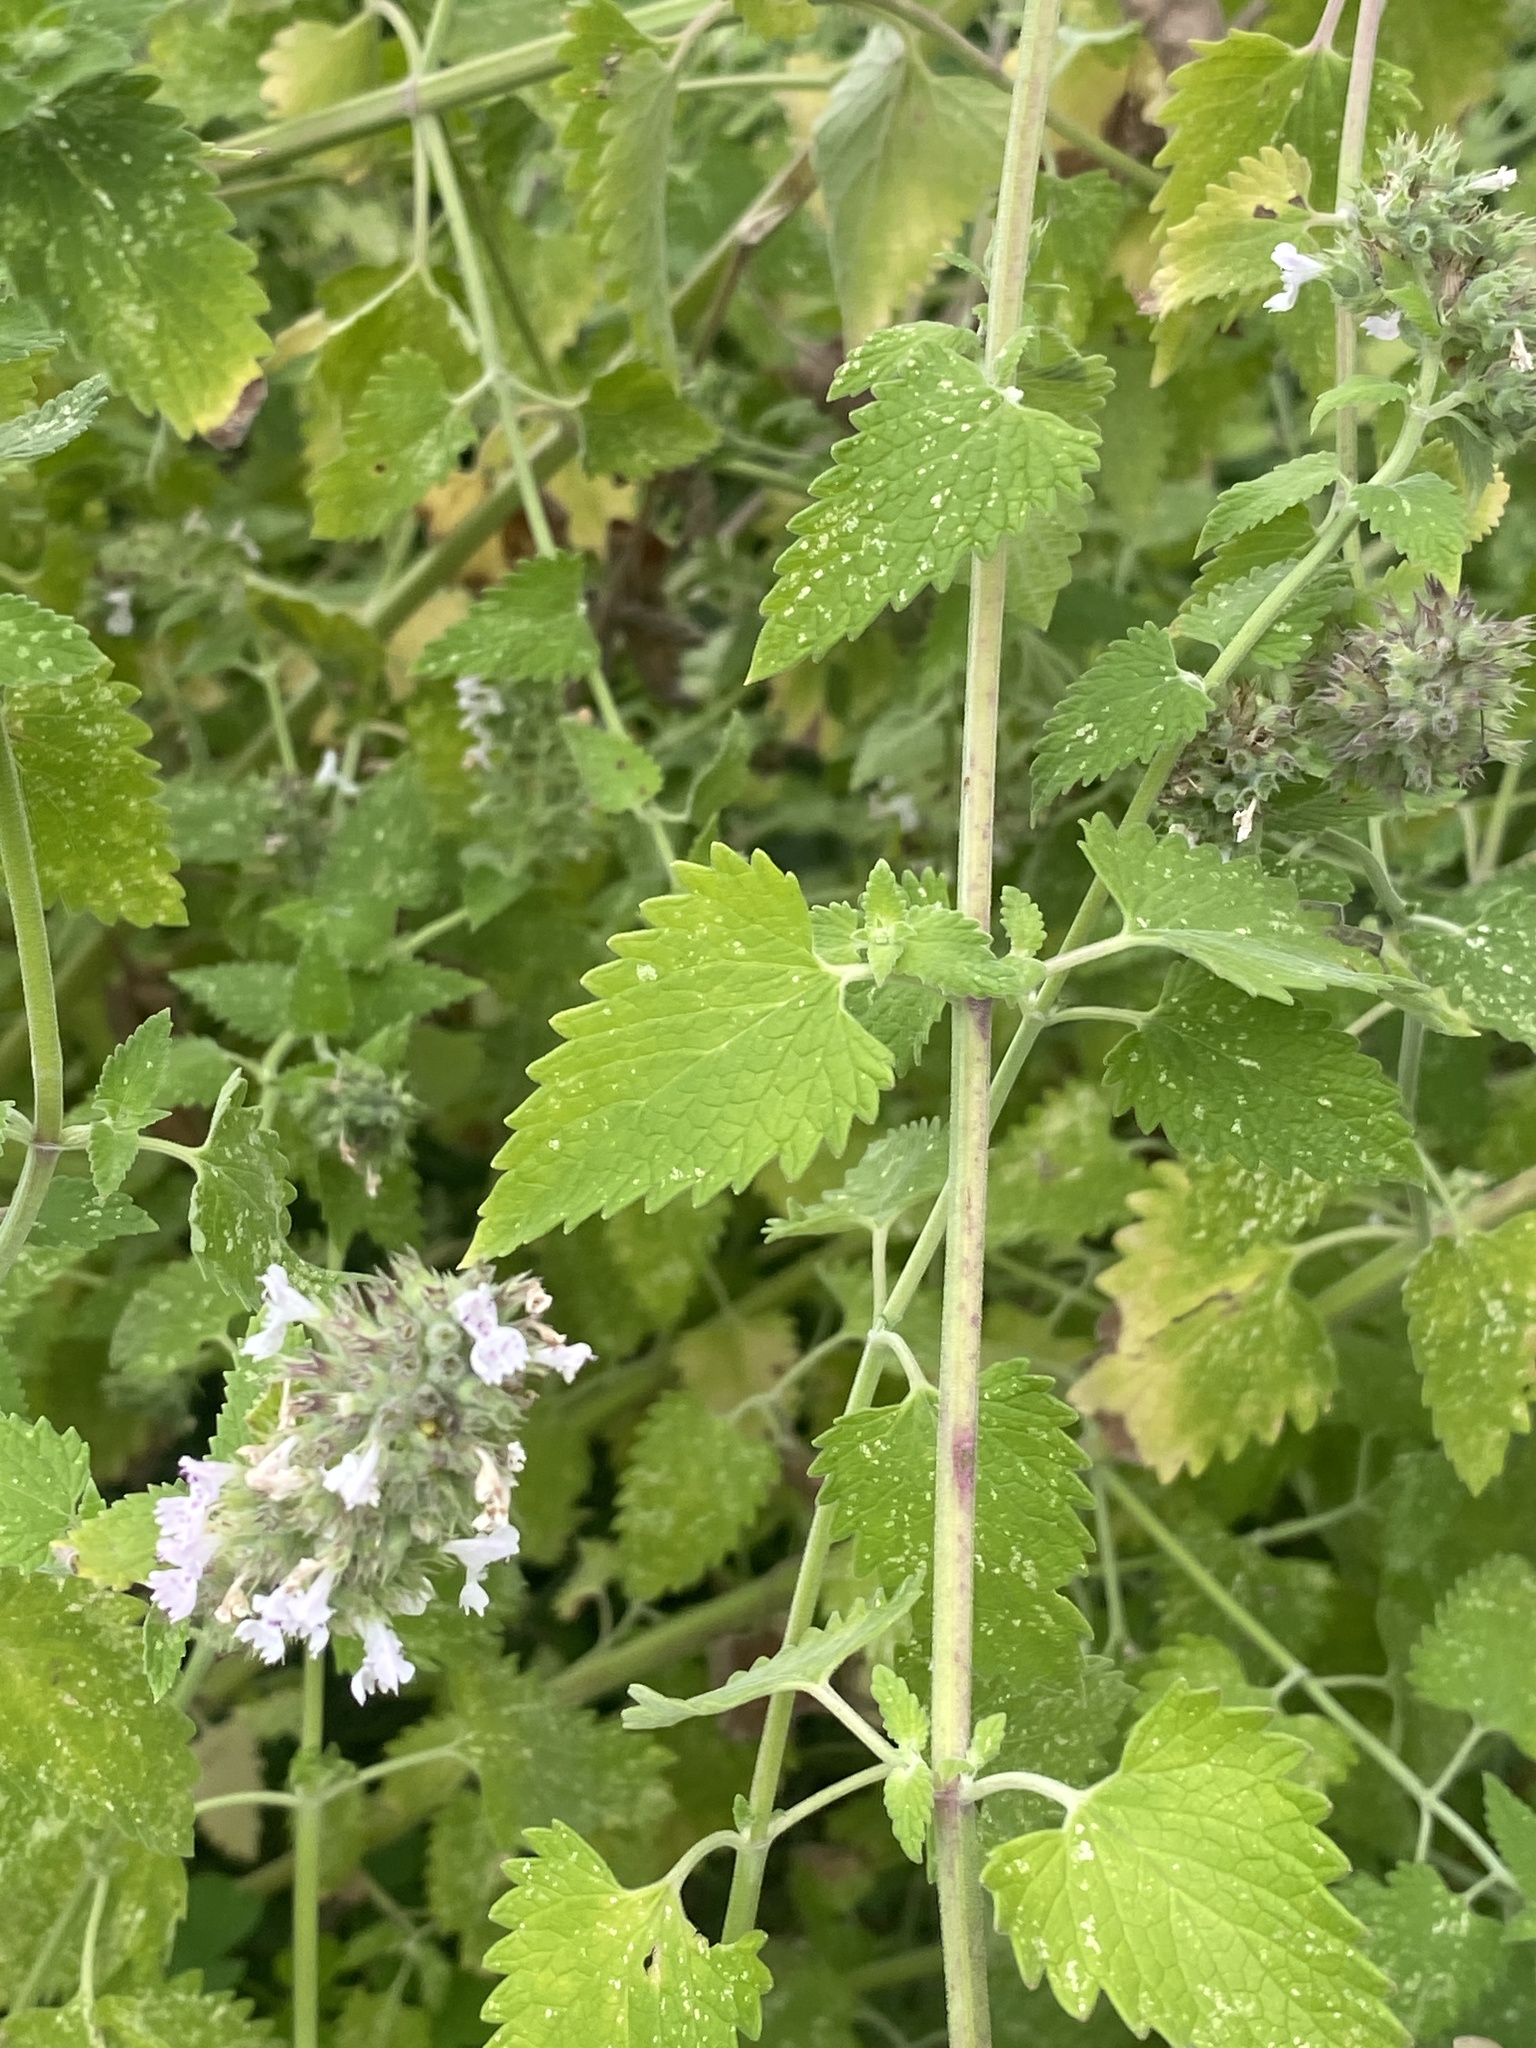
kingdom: Plantae
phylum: Tracheophyta
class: Magnoliopsida
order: Lamiales
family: Lamiaceae
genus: Nepeta
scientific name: Nepeta cataria
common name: Catnip
